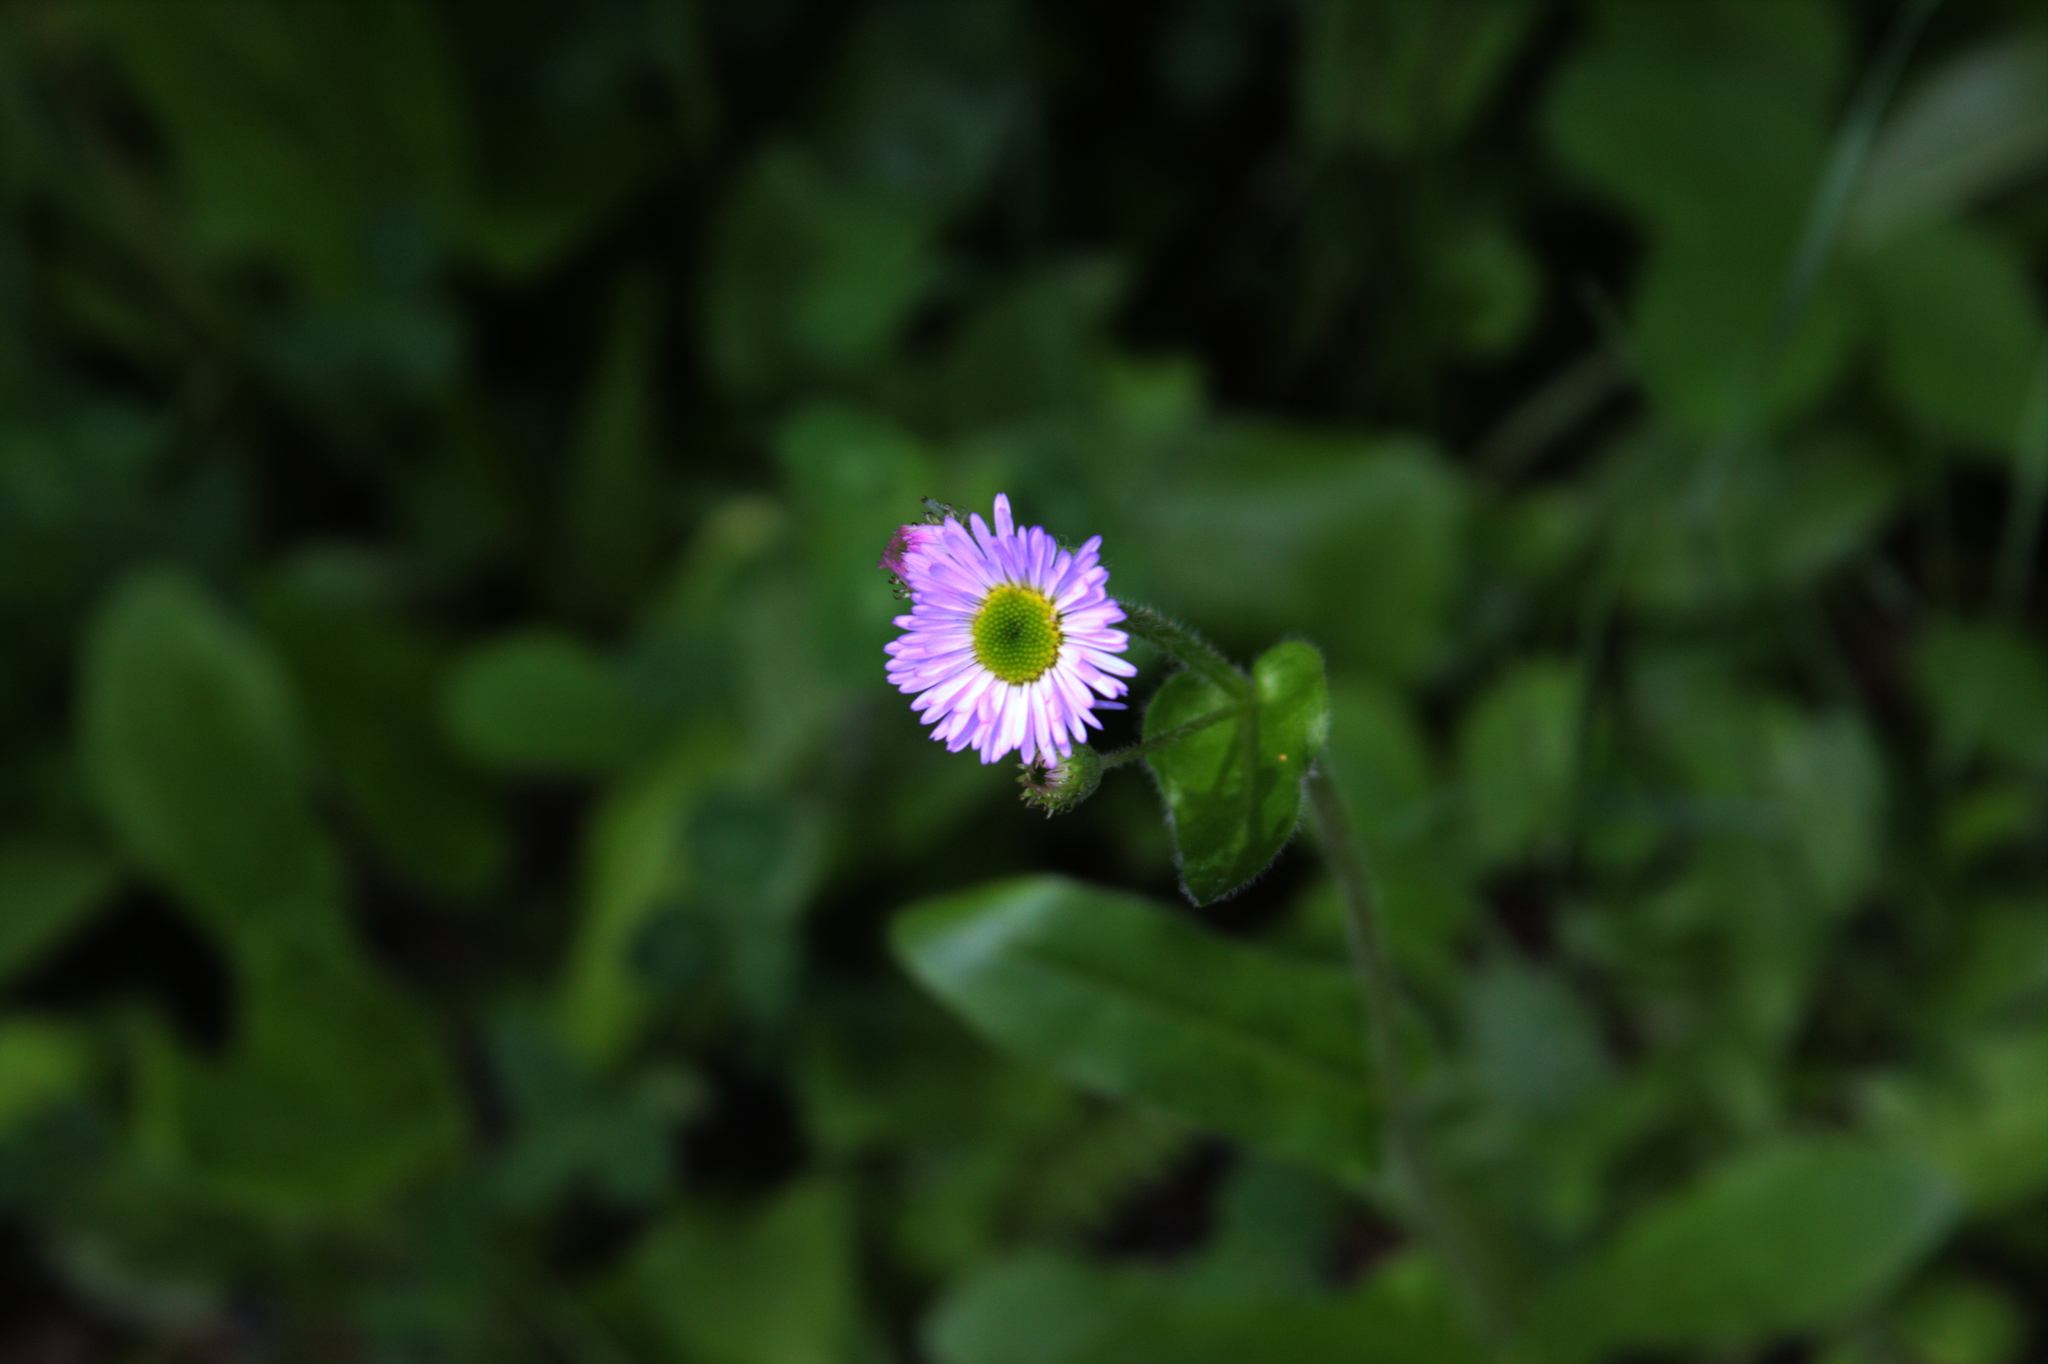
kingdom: Plantae
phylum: Tracheophyta
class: Magnoliopsida
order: Asterales
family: Asteraceae
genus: Erigeron
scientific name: Erigeron pulchellus
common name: Hairy fleabane
